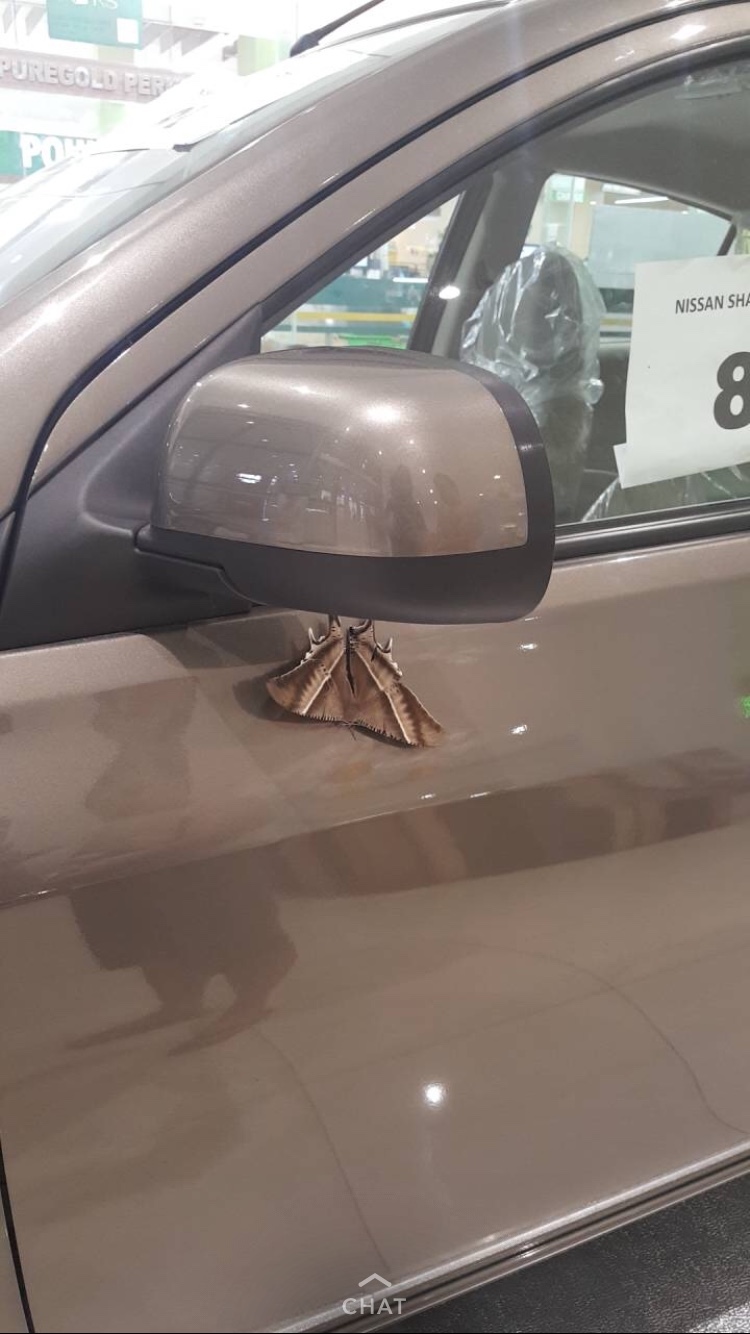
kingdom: Animalia
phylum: Arthropoda
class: Insecta
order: Lepidoptera
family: Uraniidae
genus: Lyssa
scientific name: Lyssa zampa
